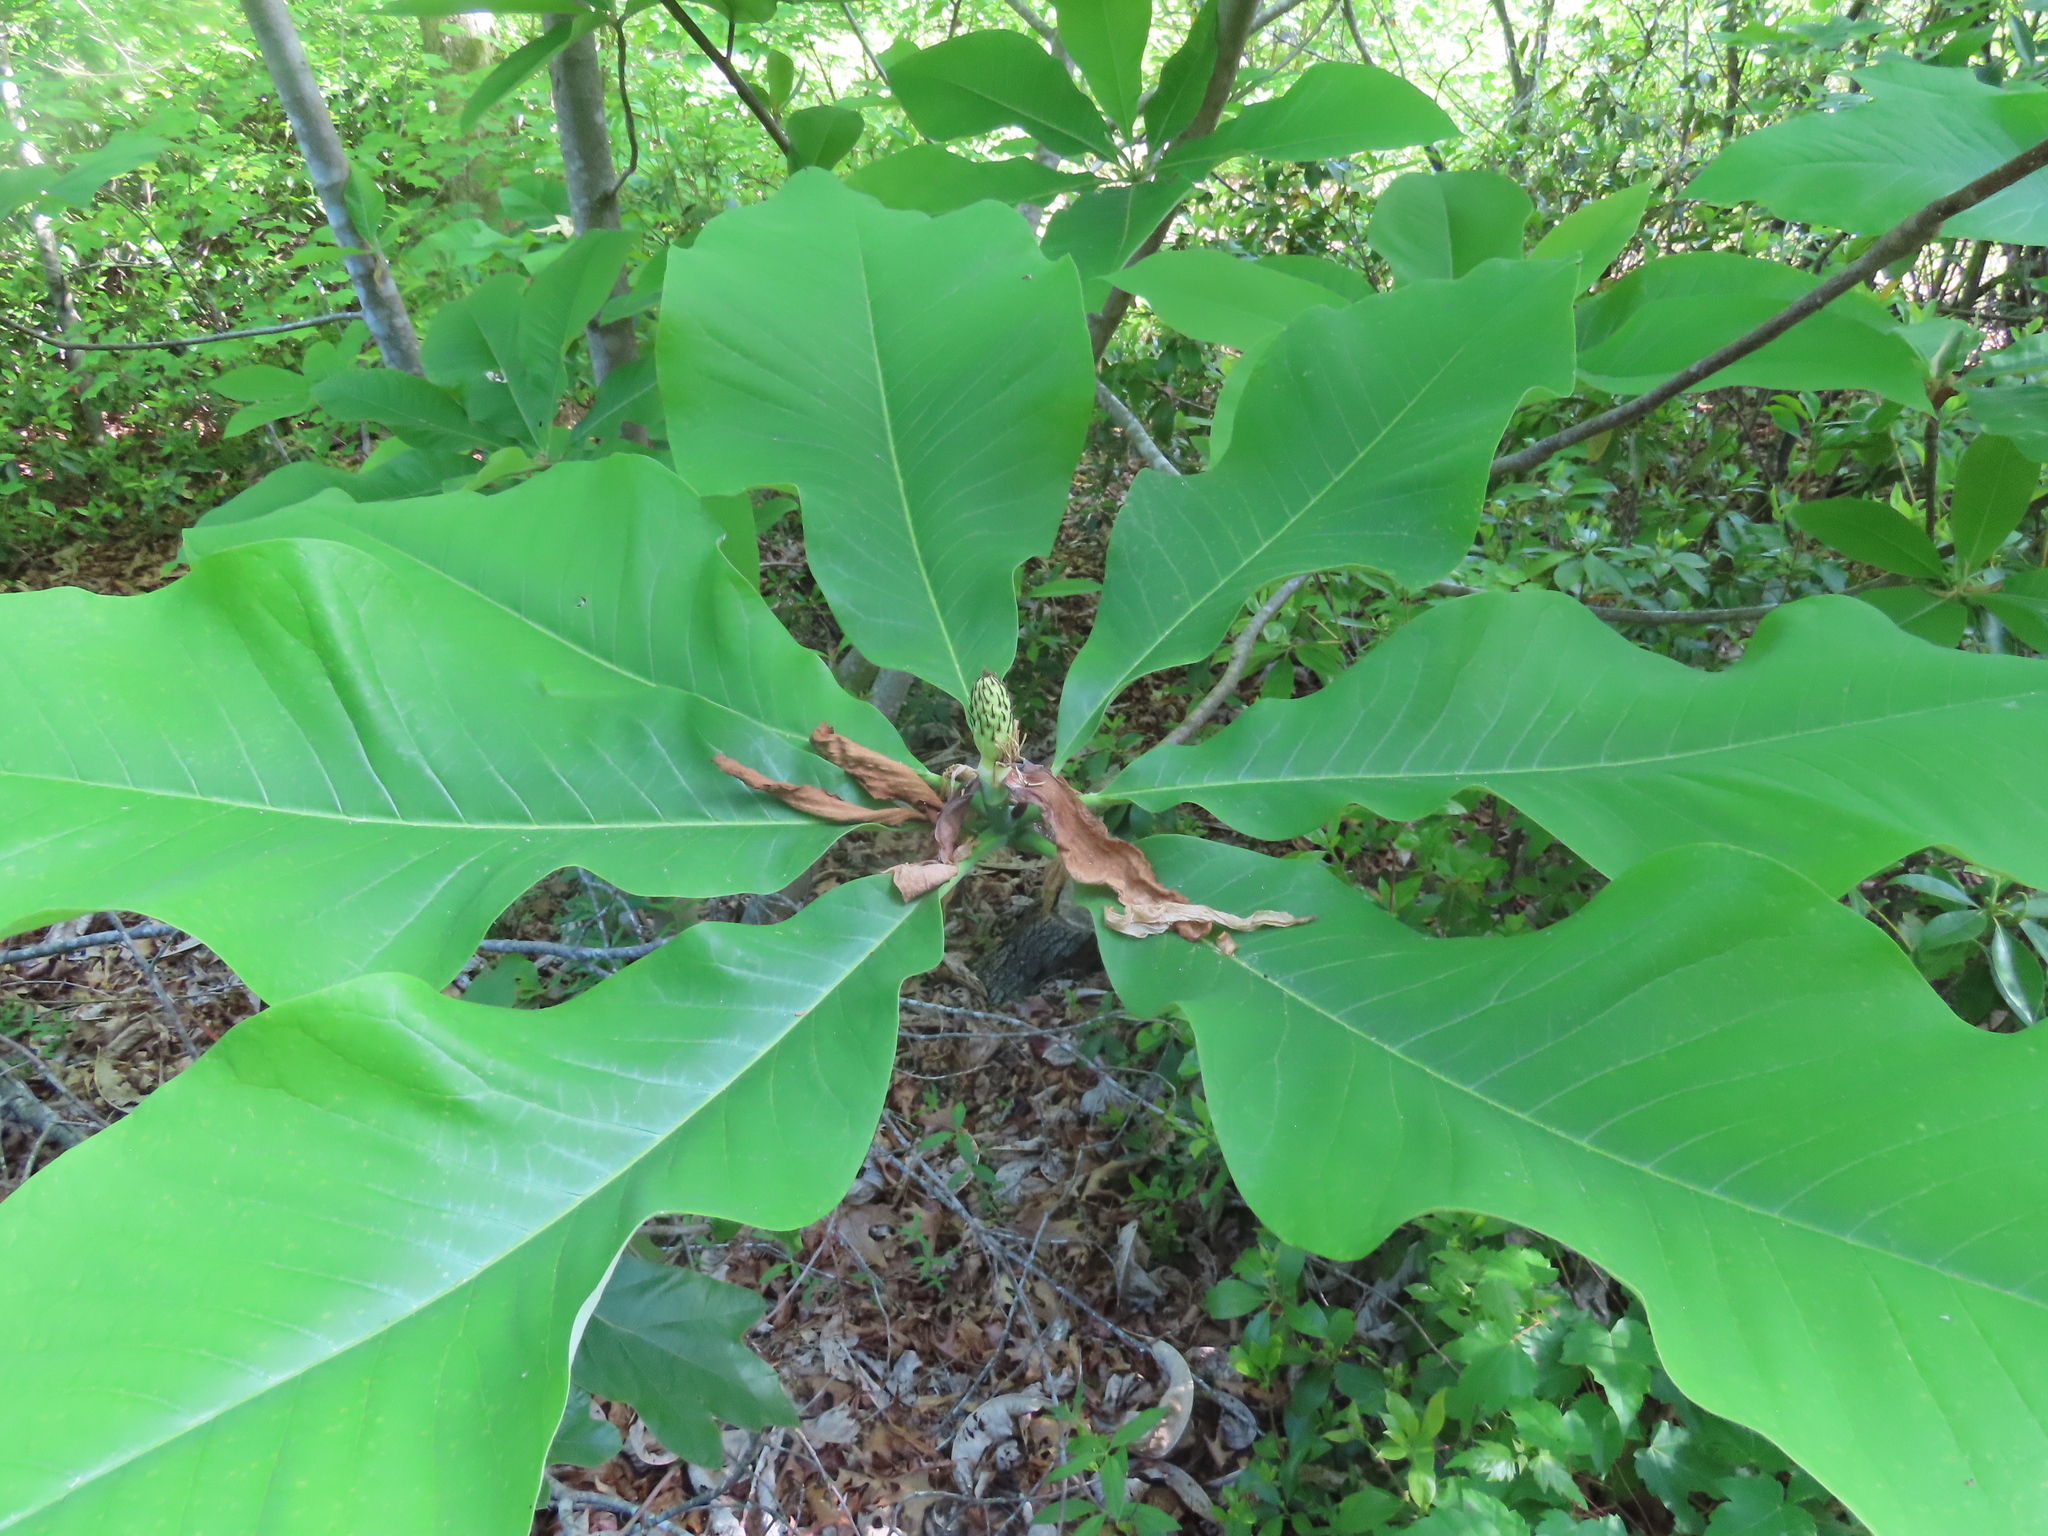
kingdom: Plantae
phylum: Tracheophyta
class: Magnoliopsida
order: Magnoliales
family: Magnoliaceae
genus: Magnolia
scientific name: Magnolia tripetala
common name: Umbrella magnolia
